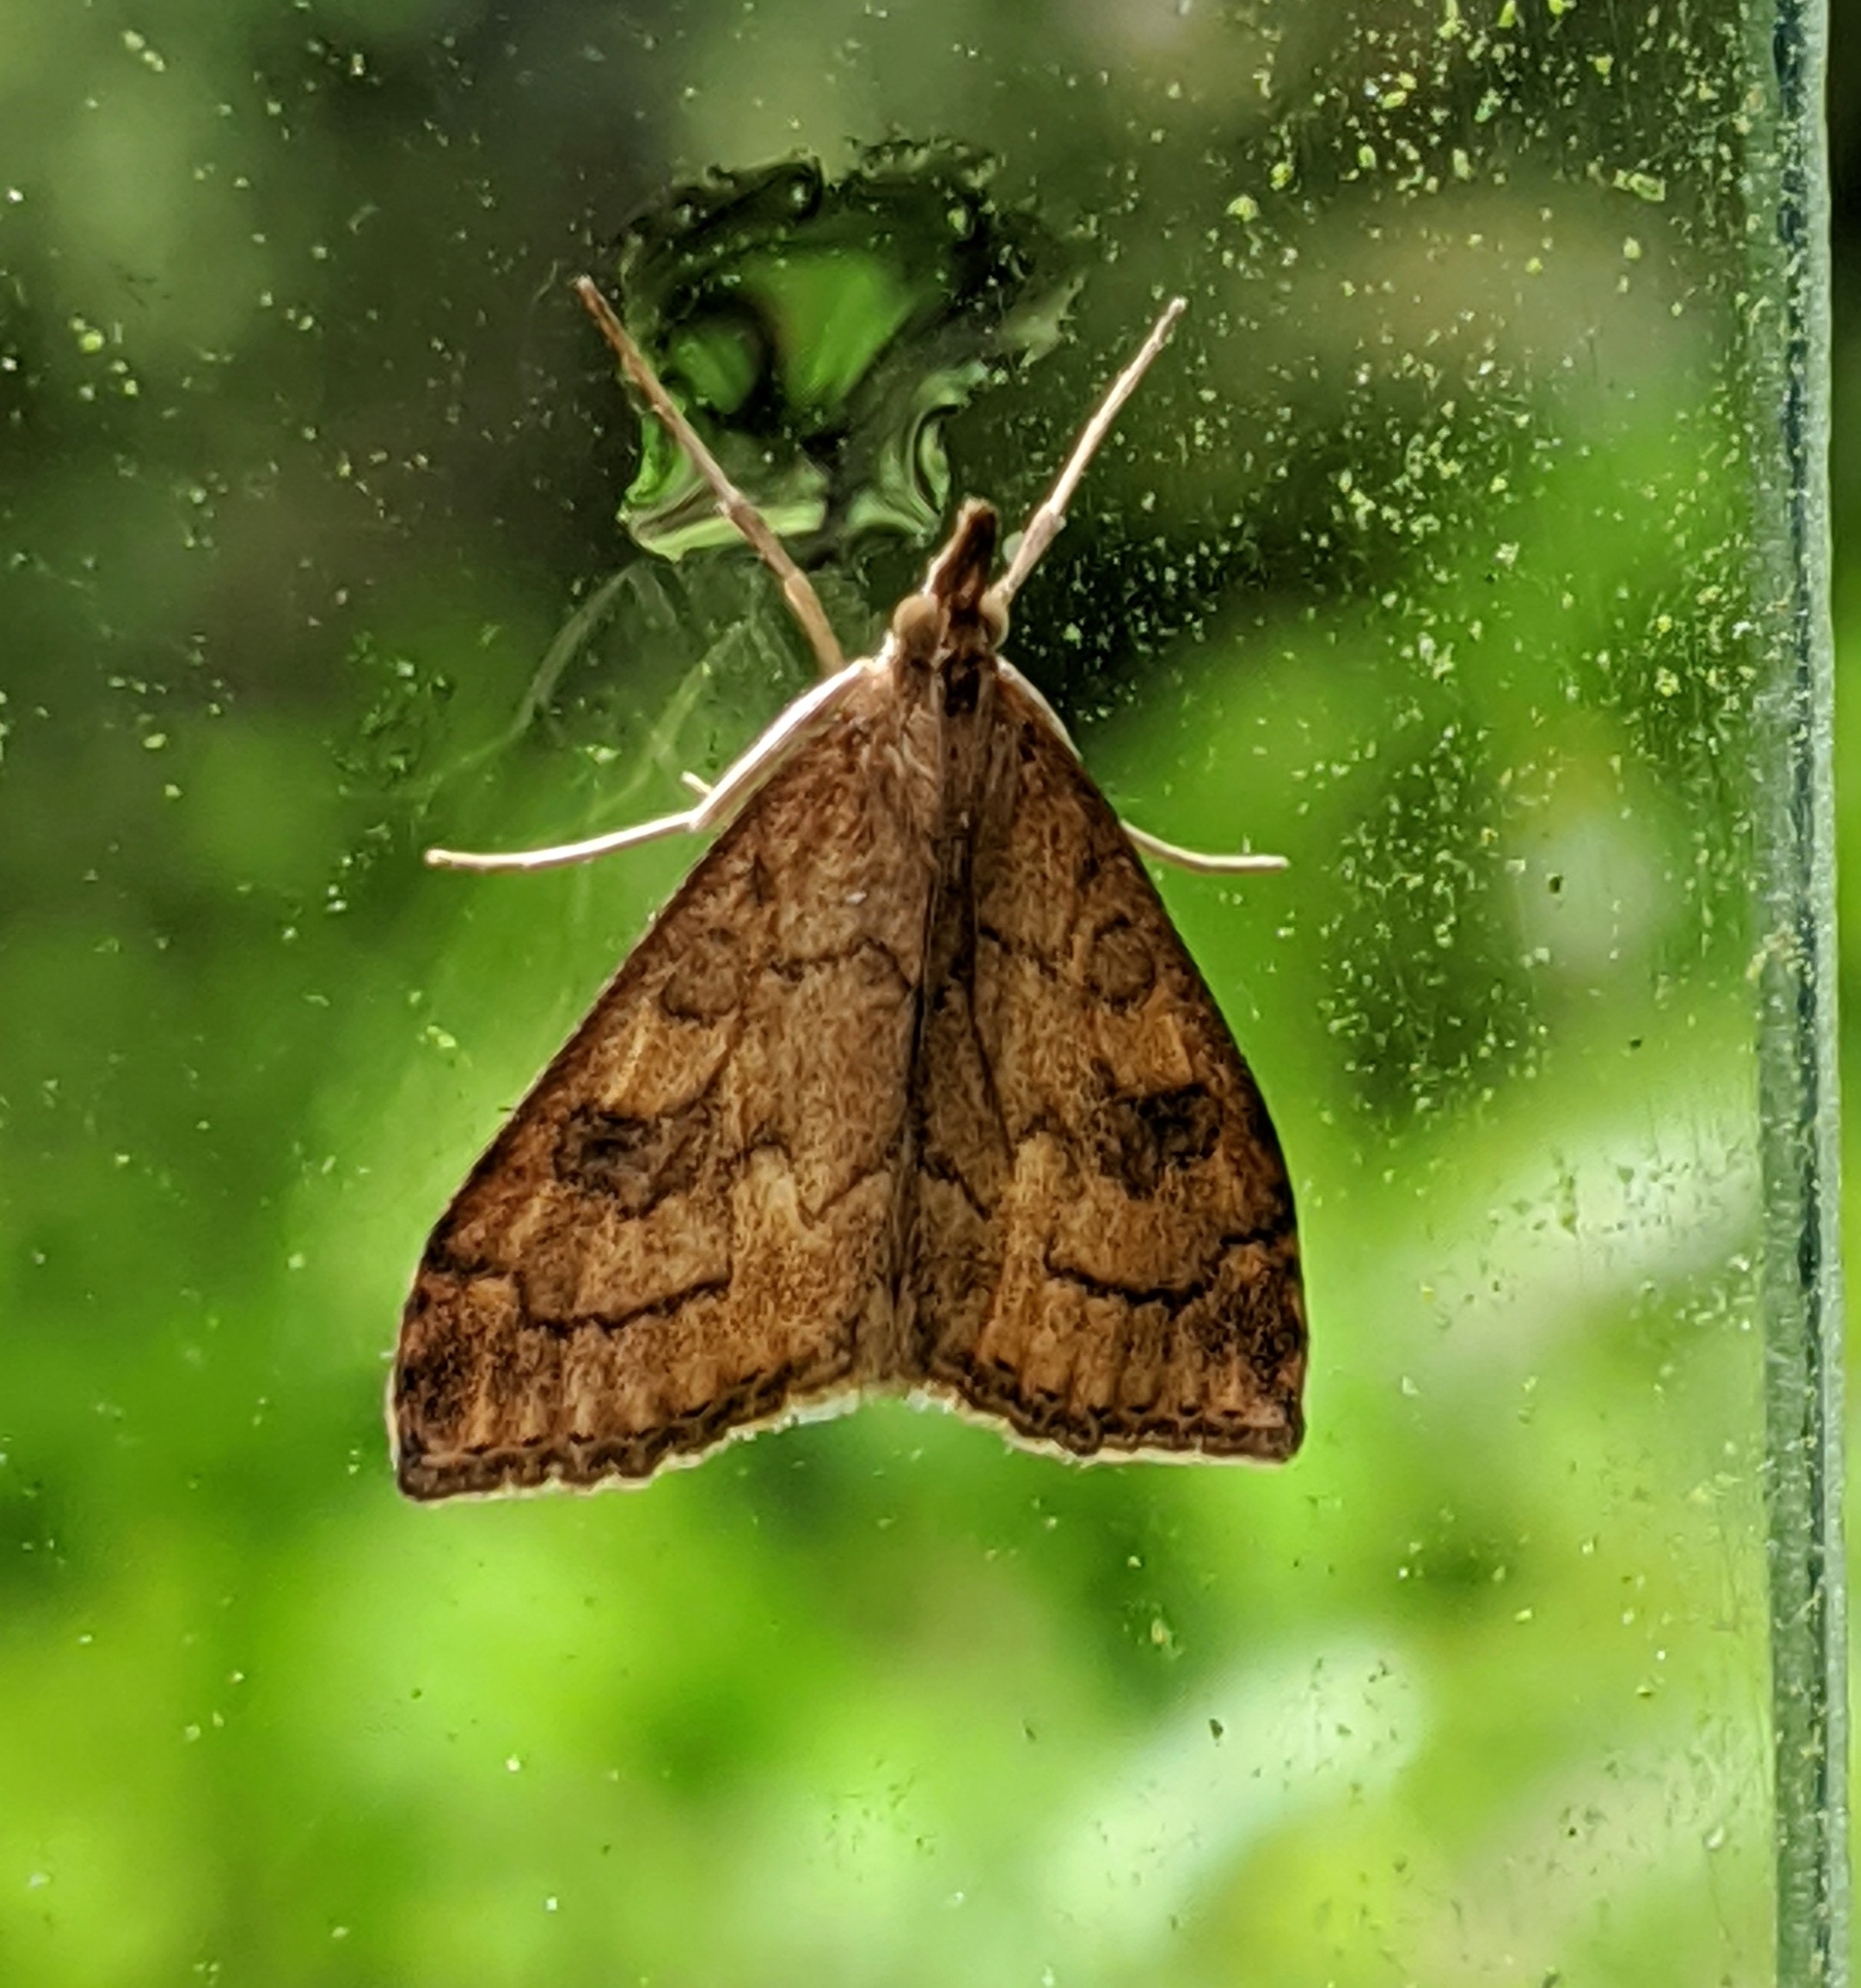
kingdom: Animalia
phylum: Arthropoda
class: Insecta
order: Lepidoptera
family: Crambidae
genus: Udea
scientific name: Udea profundalis
